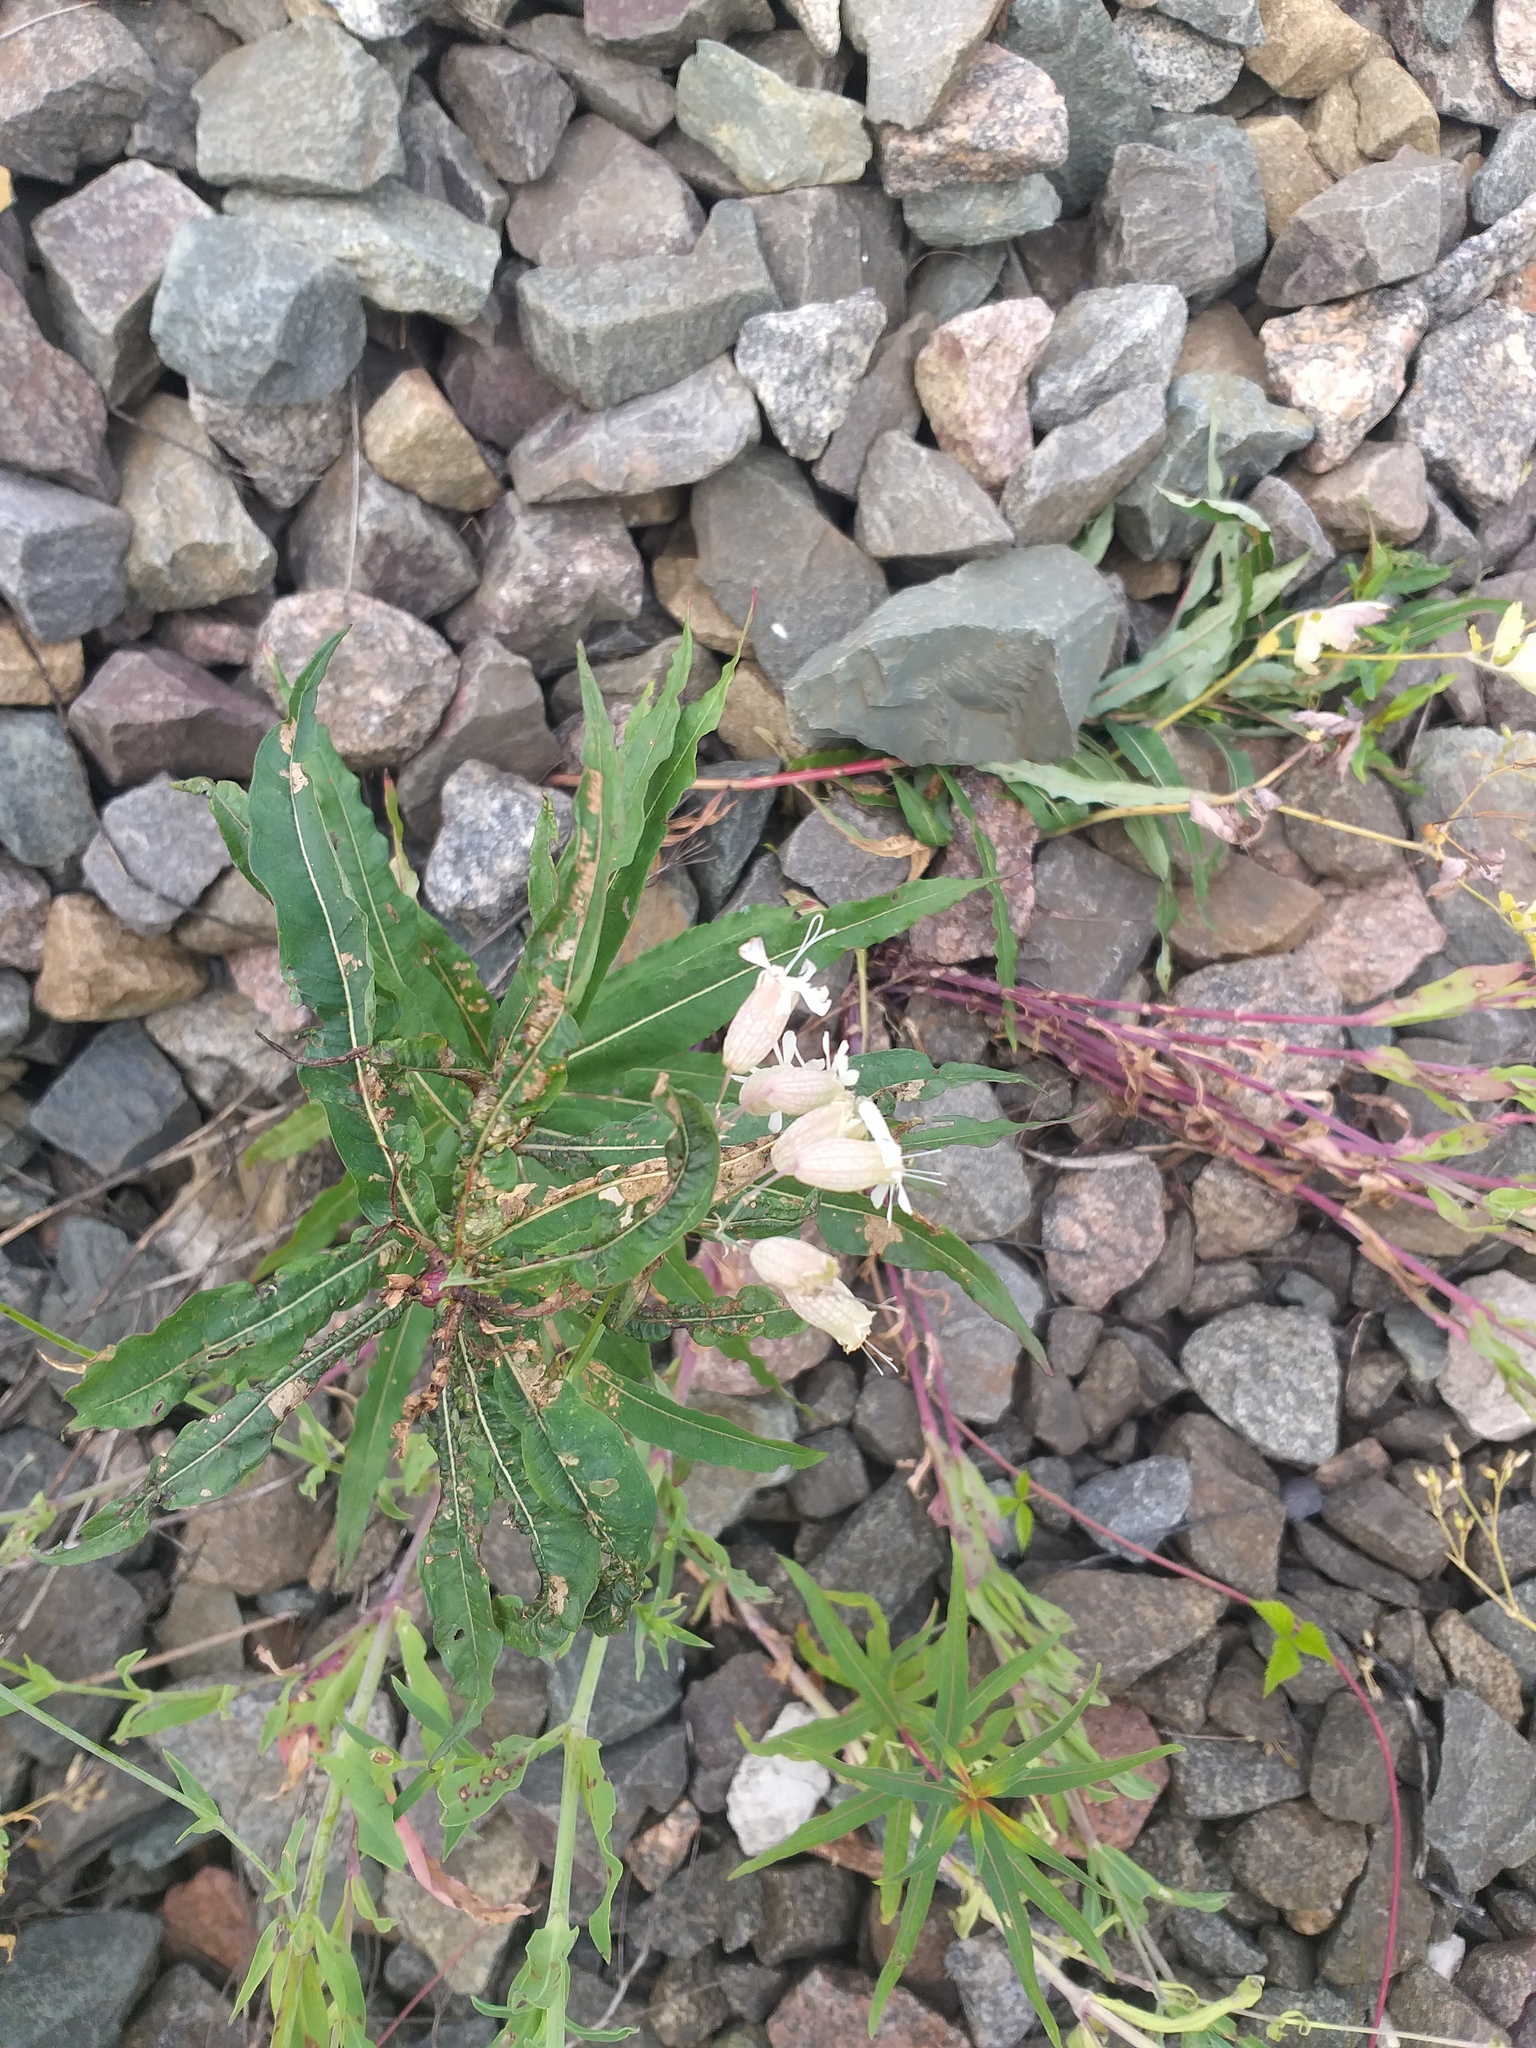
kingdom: Plantae
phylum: Tracheophyta
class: Magnoliopsida
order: Caryophyllales
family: Caryophyllaceae
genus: Silene
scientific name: Silene vulgaris
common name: Bladder campion
